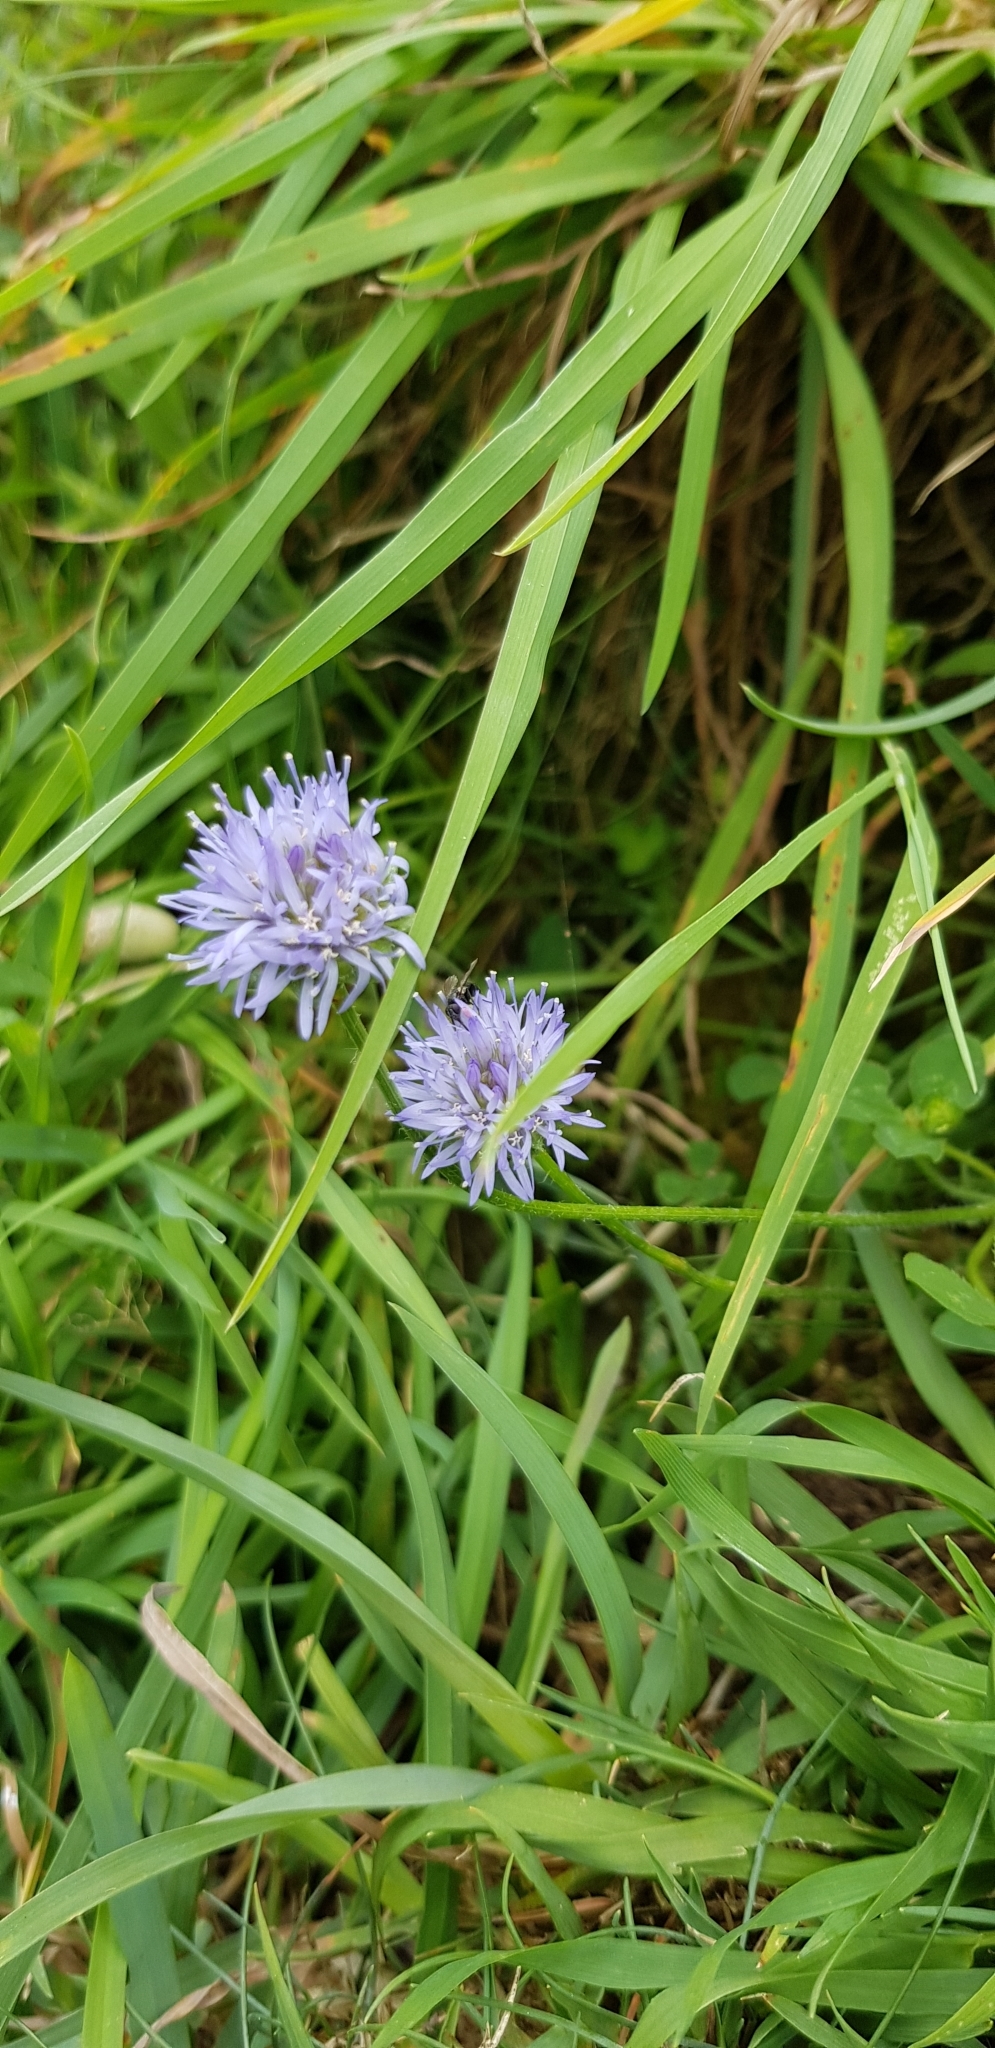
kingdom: Plantae
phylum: Tracheophyta
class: Magnoliopsida
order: Asterales
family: Campanulaceae
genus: Jasione
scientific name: Jasione montana
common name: Sheep's-bit
